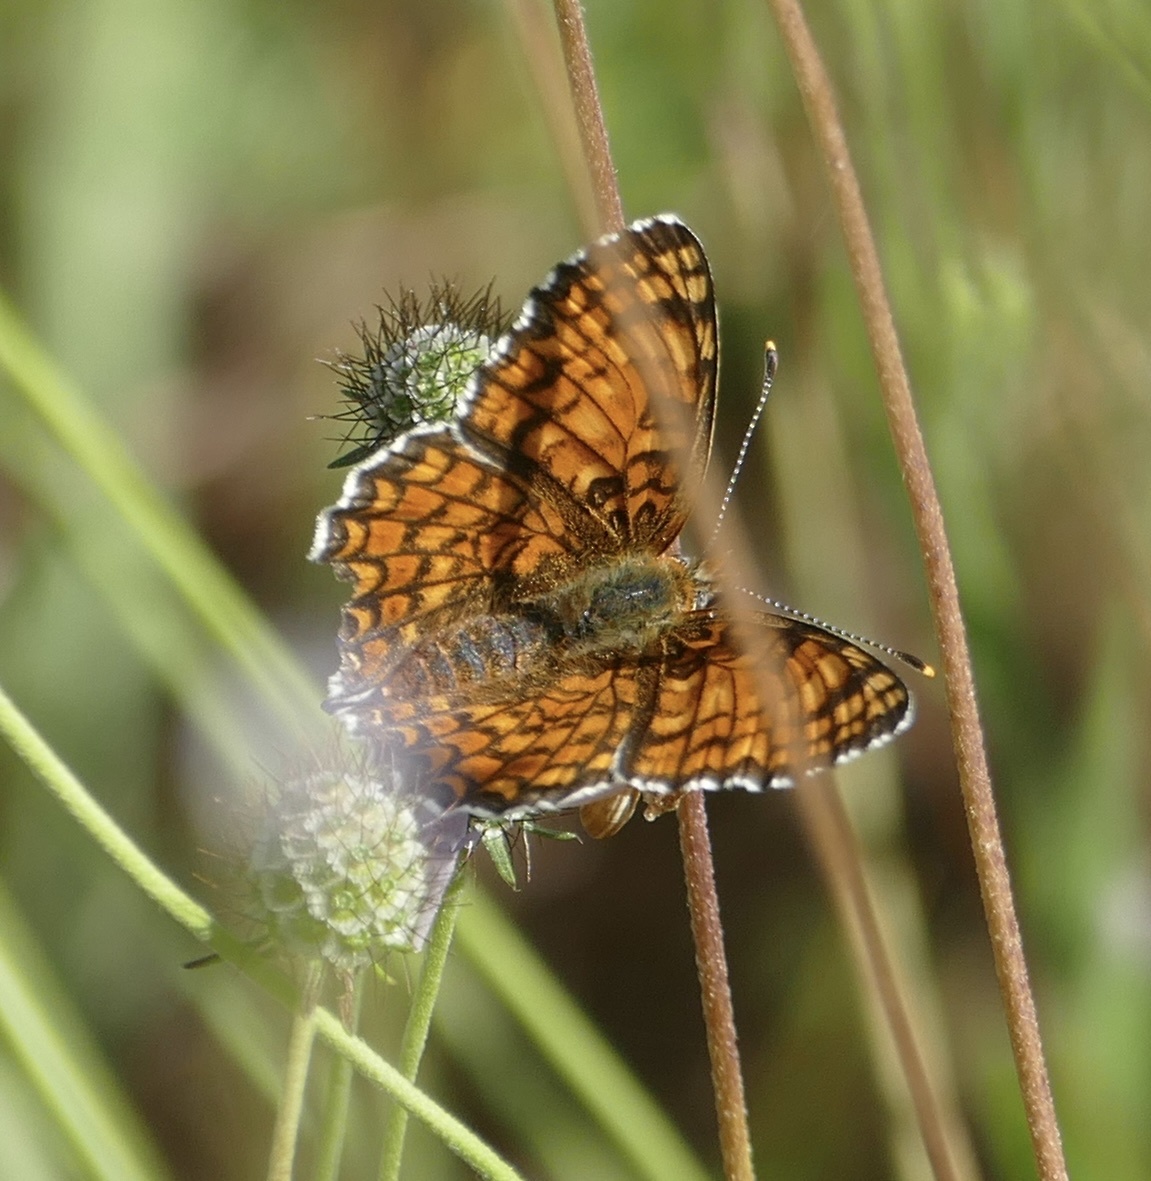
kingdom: Animalia
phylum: Arthropoda
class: Insecta
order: Lepidoptera
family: Nymphalidae
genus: Melitaea
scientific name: Melitaea phoebe
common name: Knapweed fritillary
